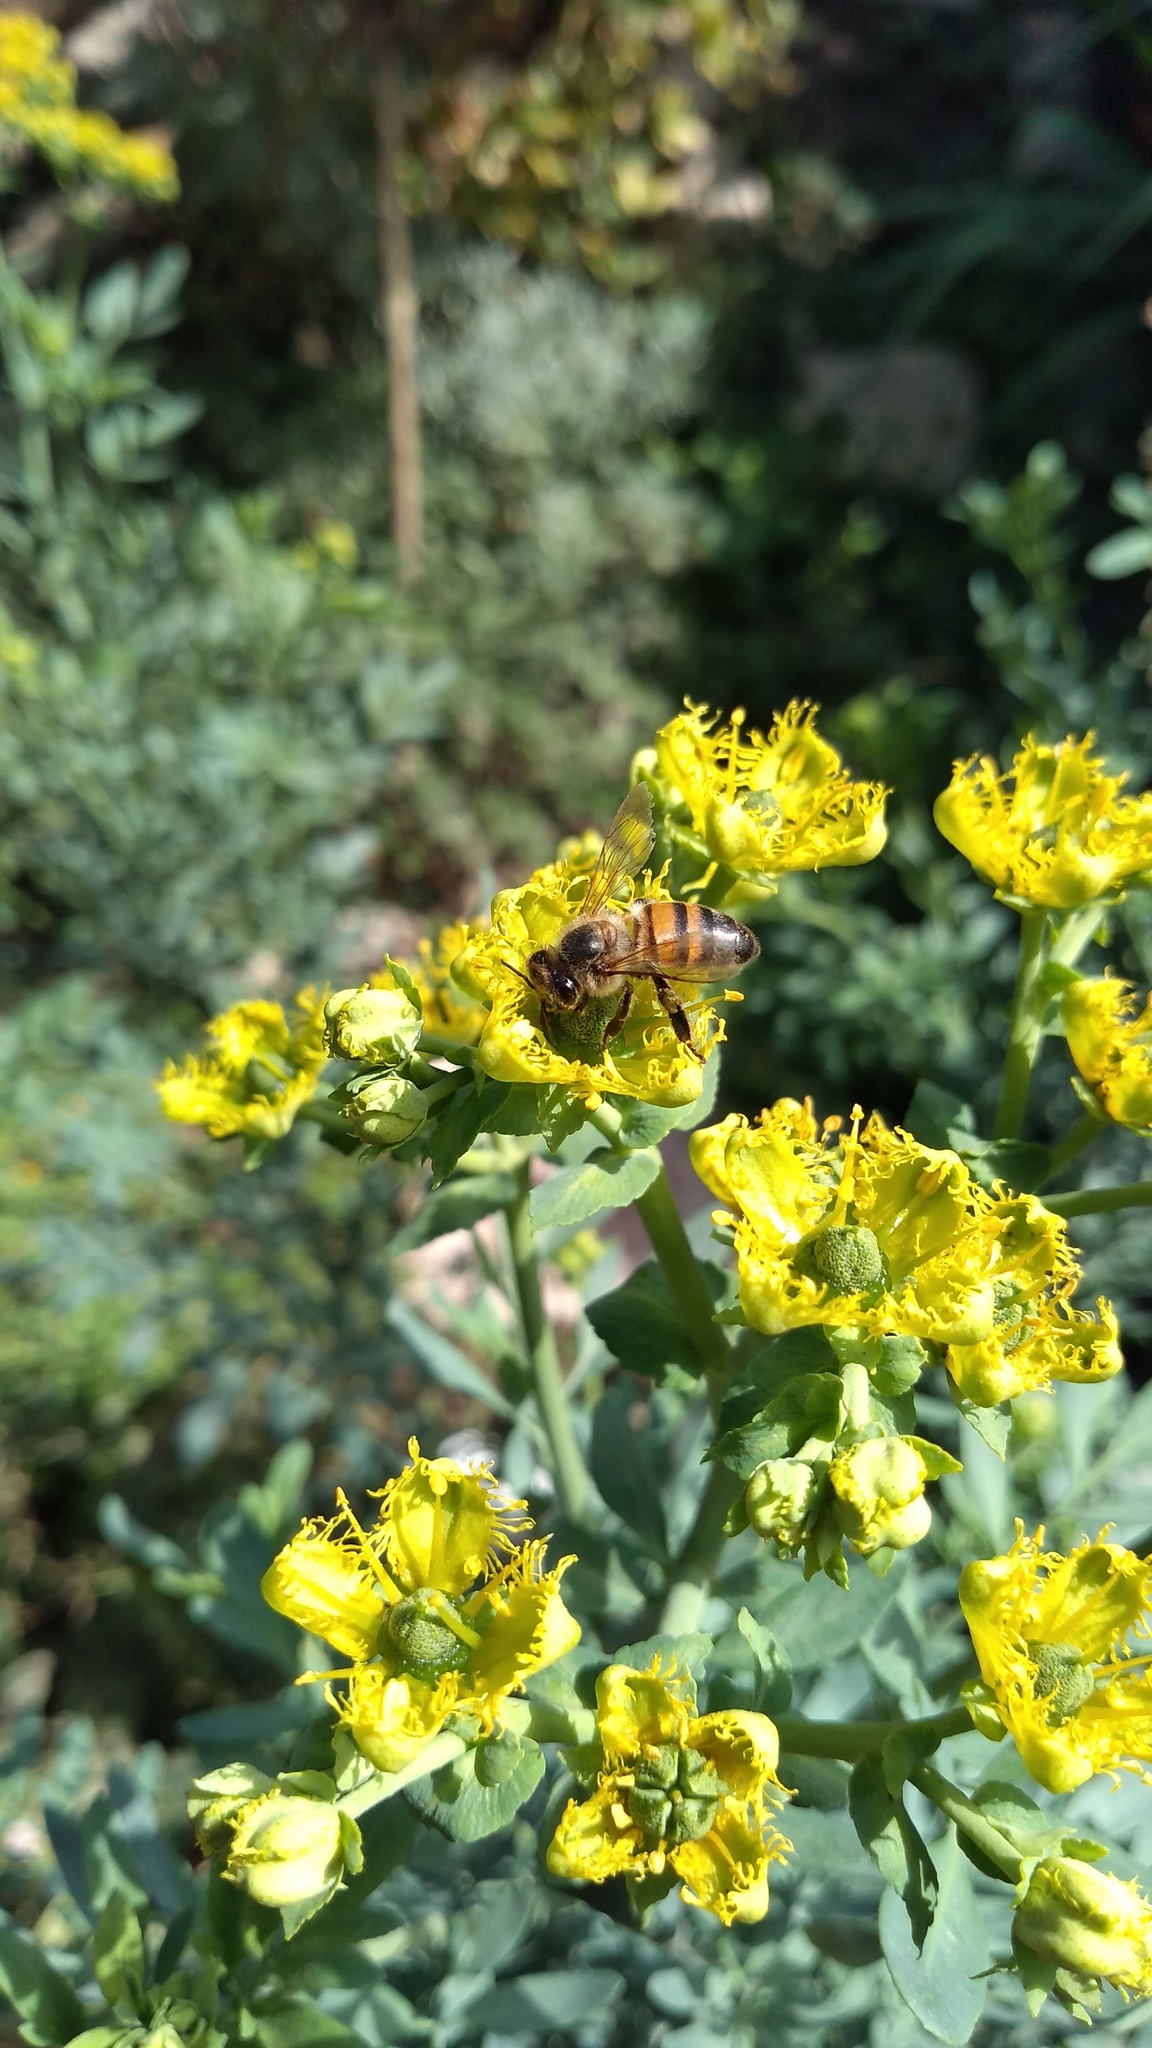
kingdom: Animalia
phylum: Arthropoda
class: Insecta
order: Hymenoptera
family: Apidae
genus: Apis
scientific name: Apis mellifera
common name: Honey bee
